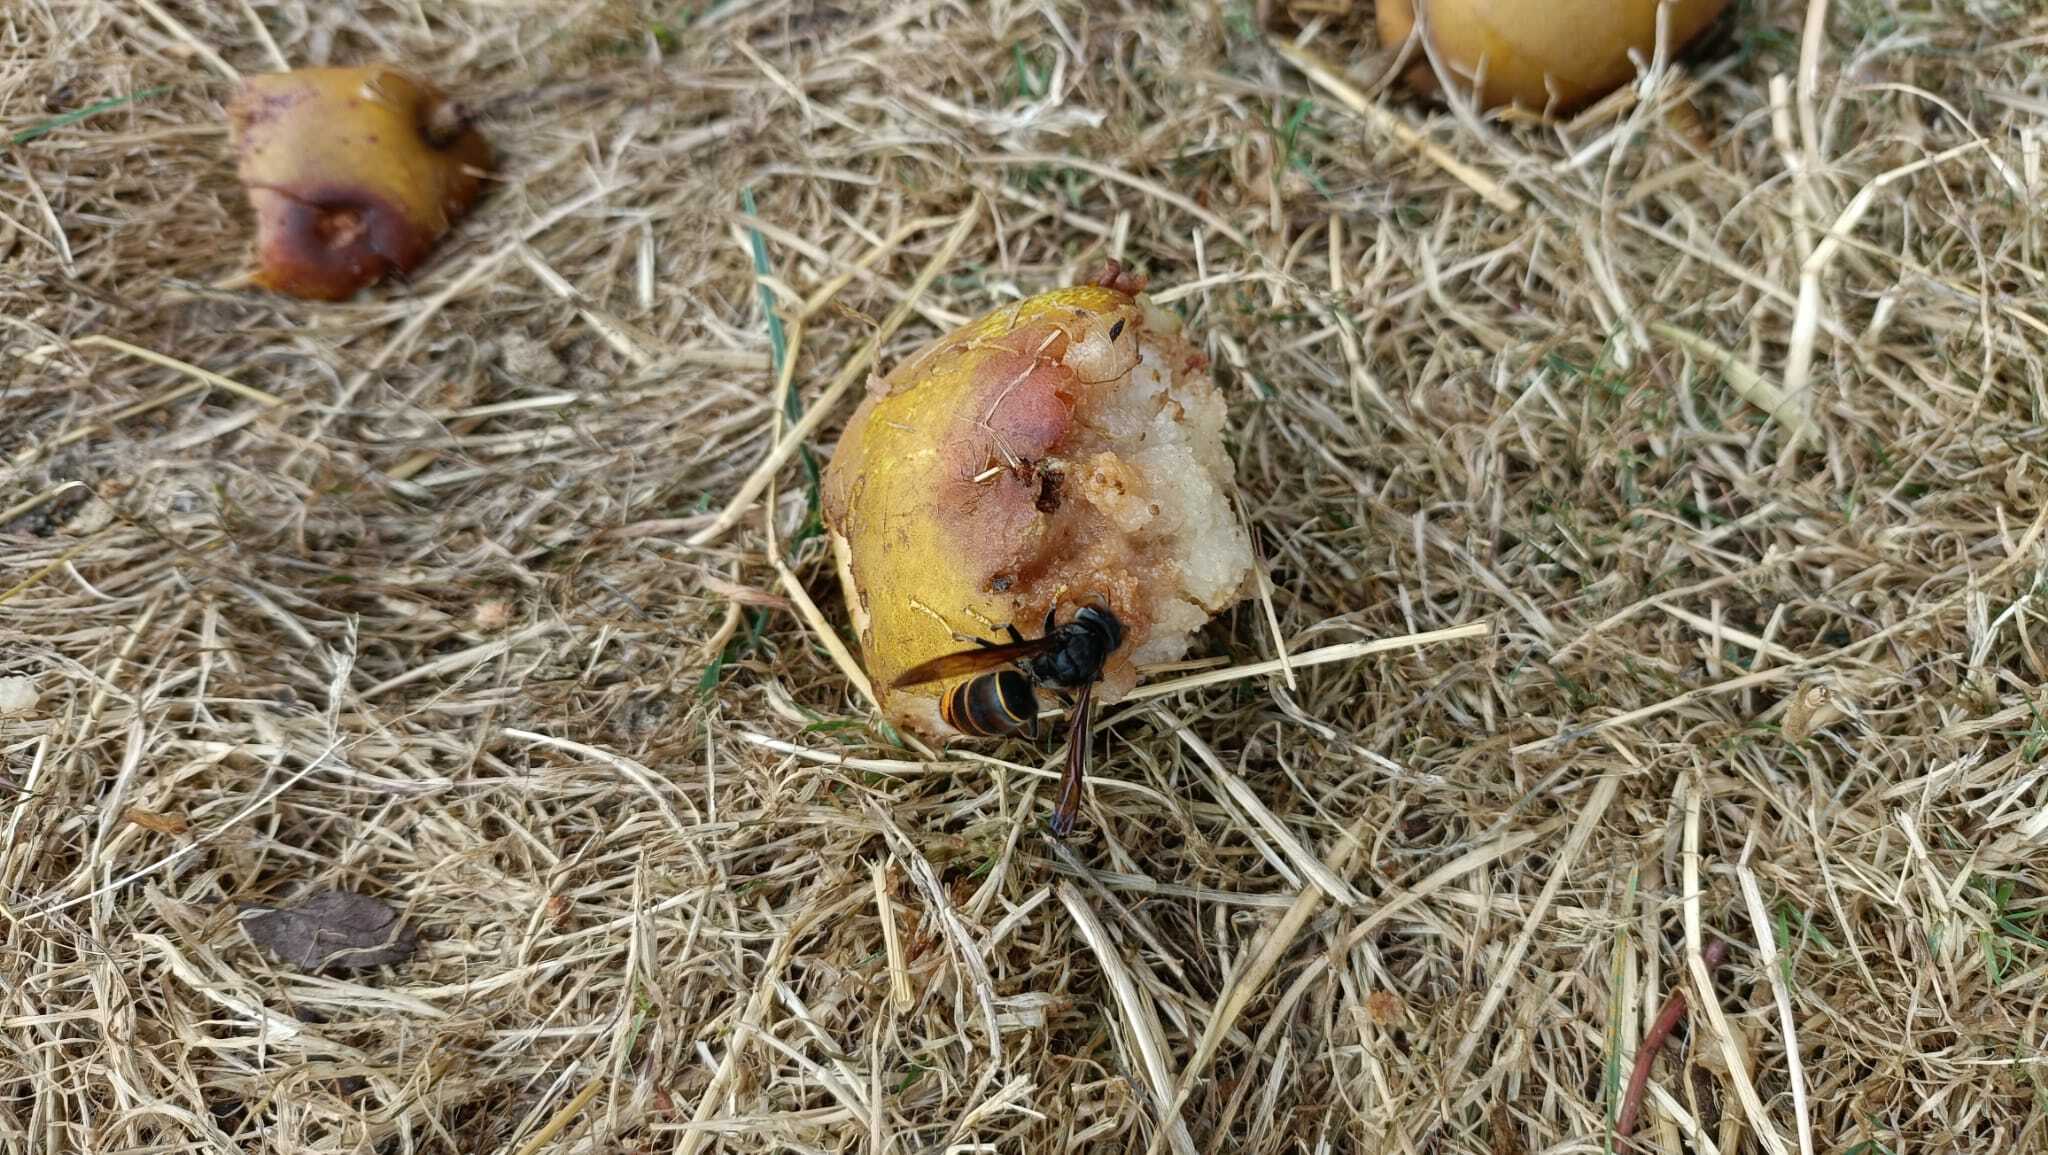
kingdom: Animalia
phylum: Arthropoda
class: Insecta
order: Hymenoptera
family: Vespidae
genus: Vespa
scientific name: Vespa velutina
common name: Asian hornet
